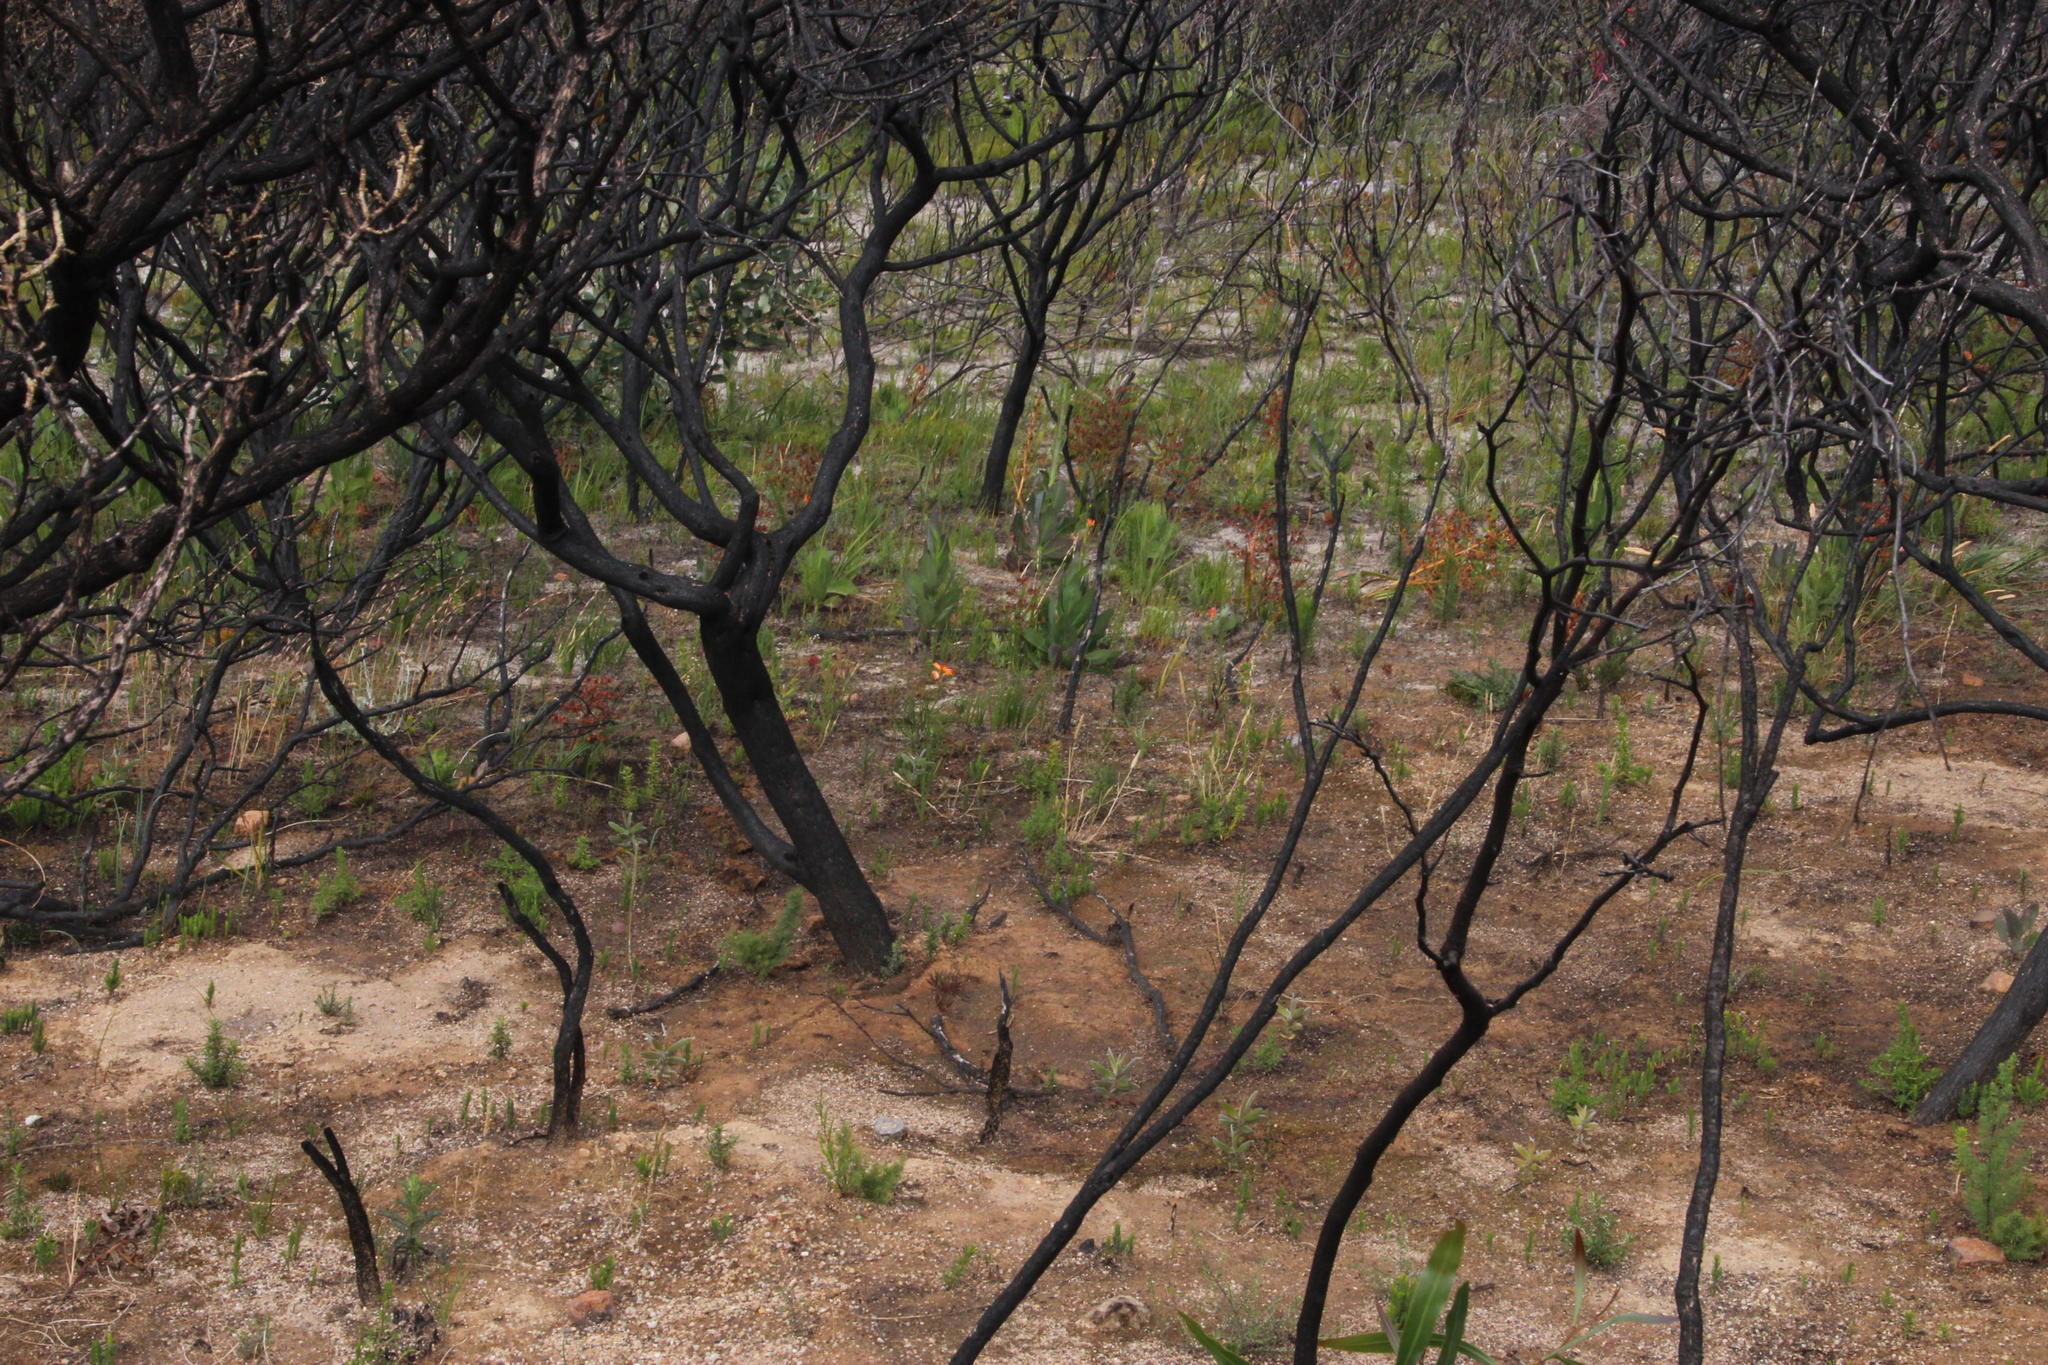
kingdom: Plantae
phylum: Tracheophyta
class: Liliopsida
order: Asparagales
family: Iridaceae
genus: Ixia
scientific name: Ixia dubia
